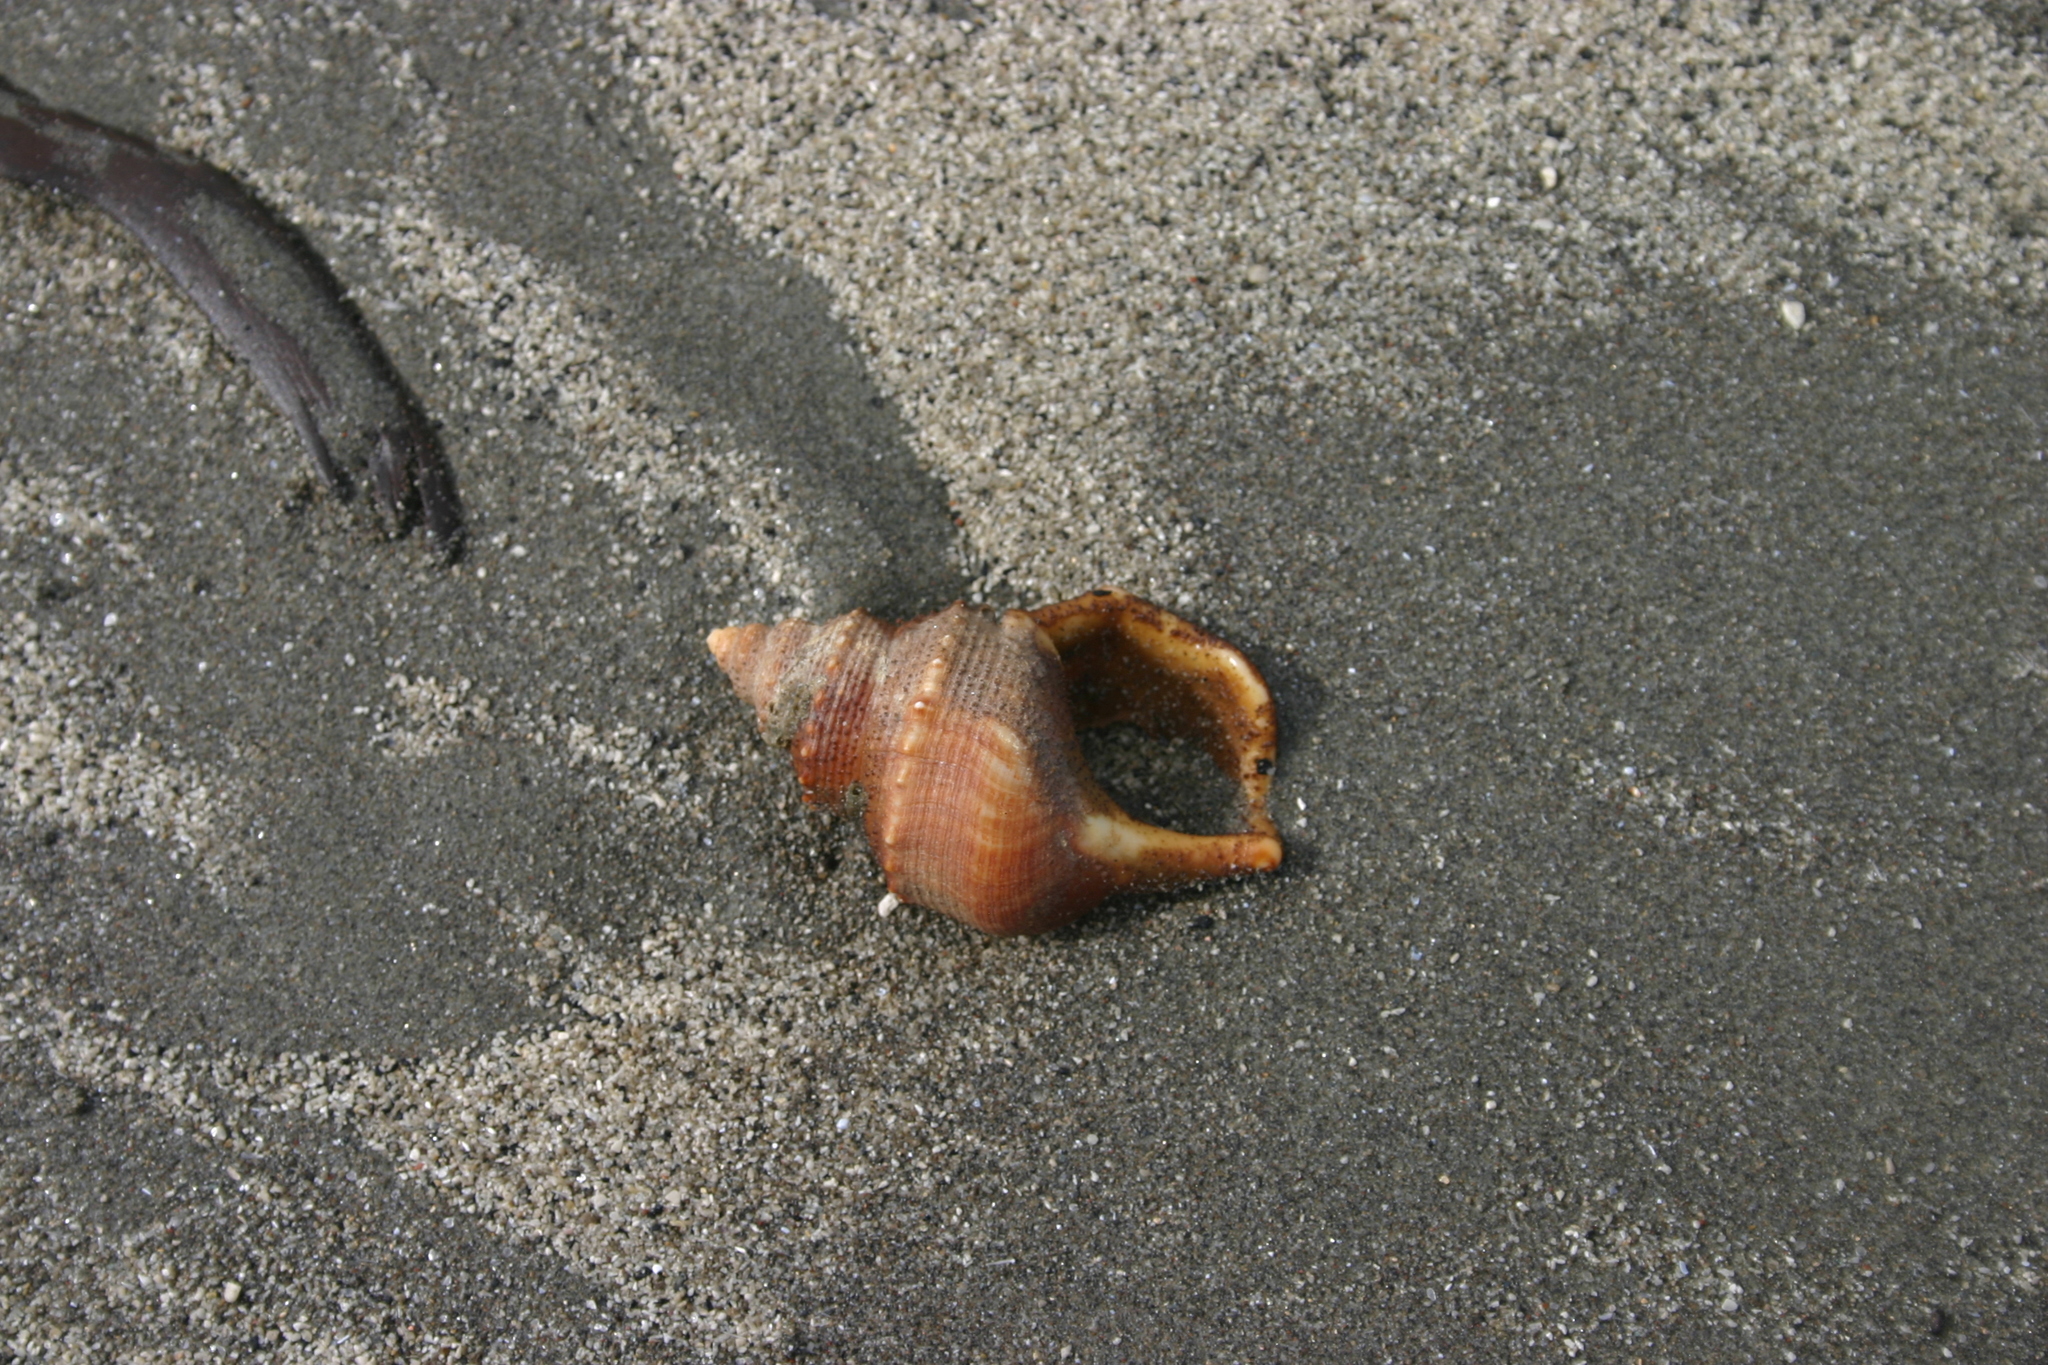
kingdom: Animalia
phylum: Mollusca
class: Gastropoda
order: Littorinimorpha
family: Struthiolariidae
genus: Struthiolaria
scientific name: Struthiolaria papulosa
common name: Large ostrich foot
